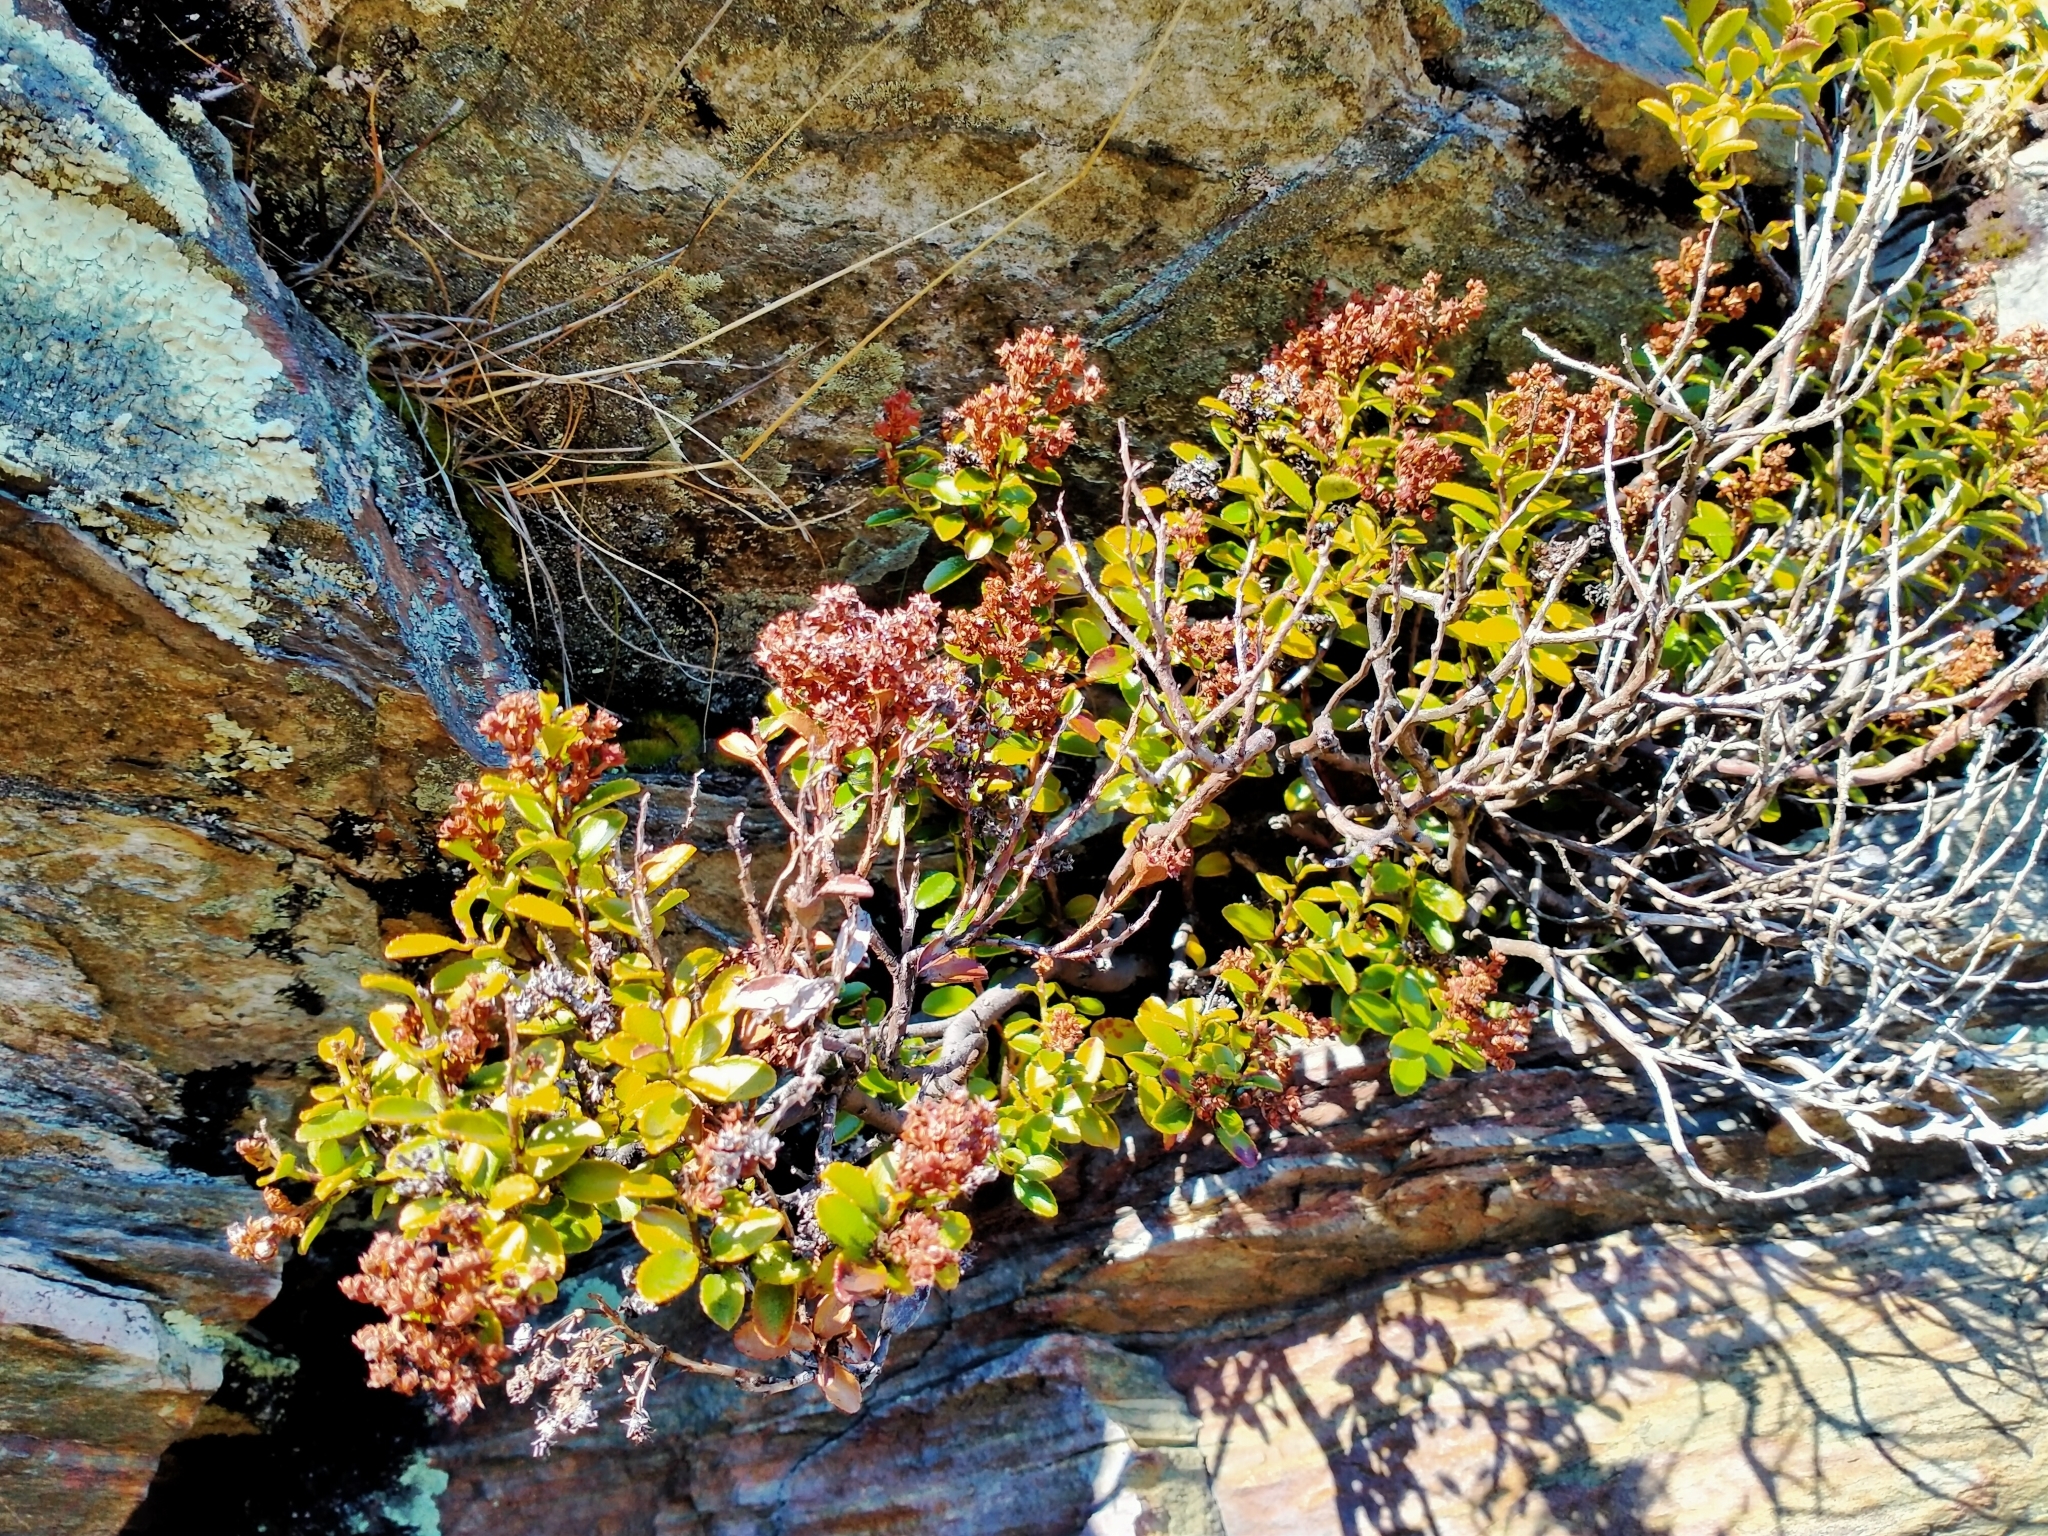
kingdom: Plantae
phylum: Tracheophyta
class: Magnoliopsida
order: Ericales
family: Ericaceae
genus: Gaultheria
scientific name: Gaultheria crassa
